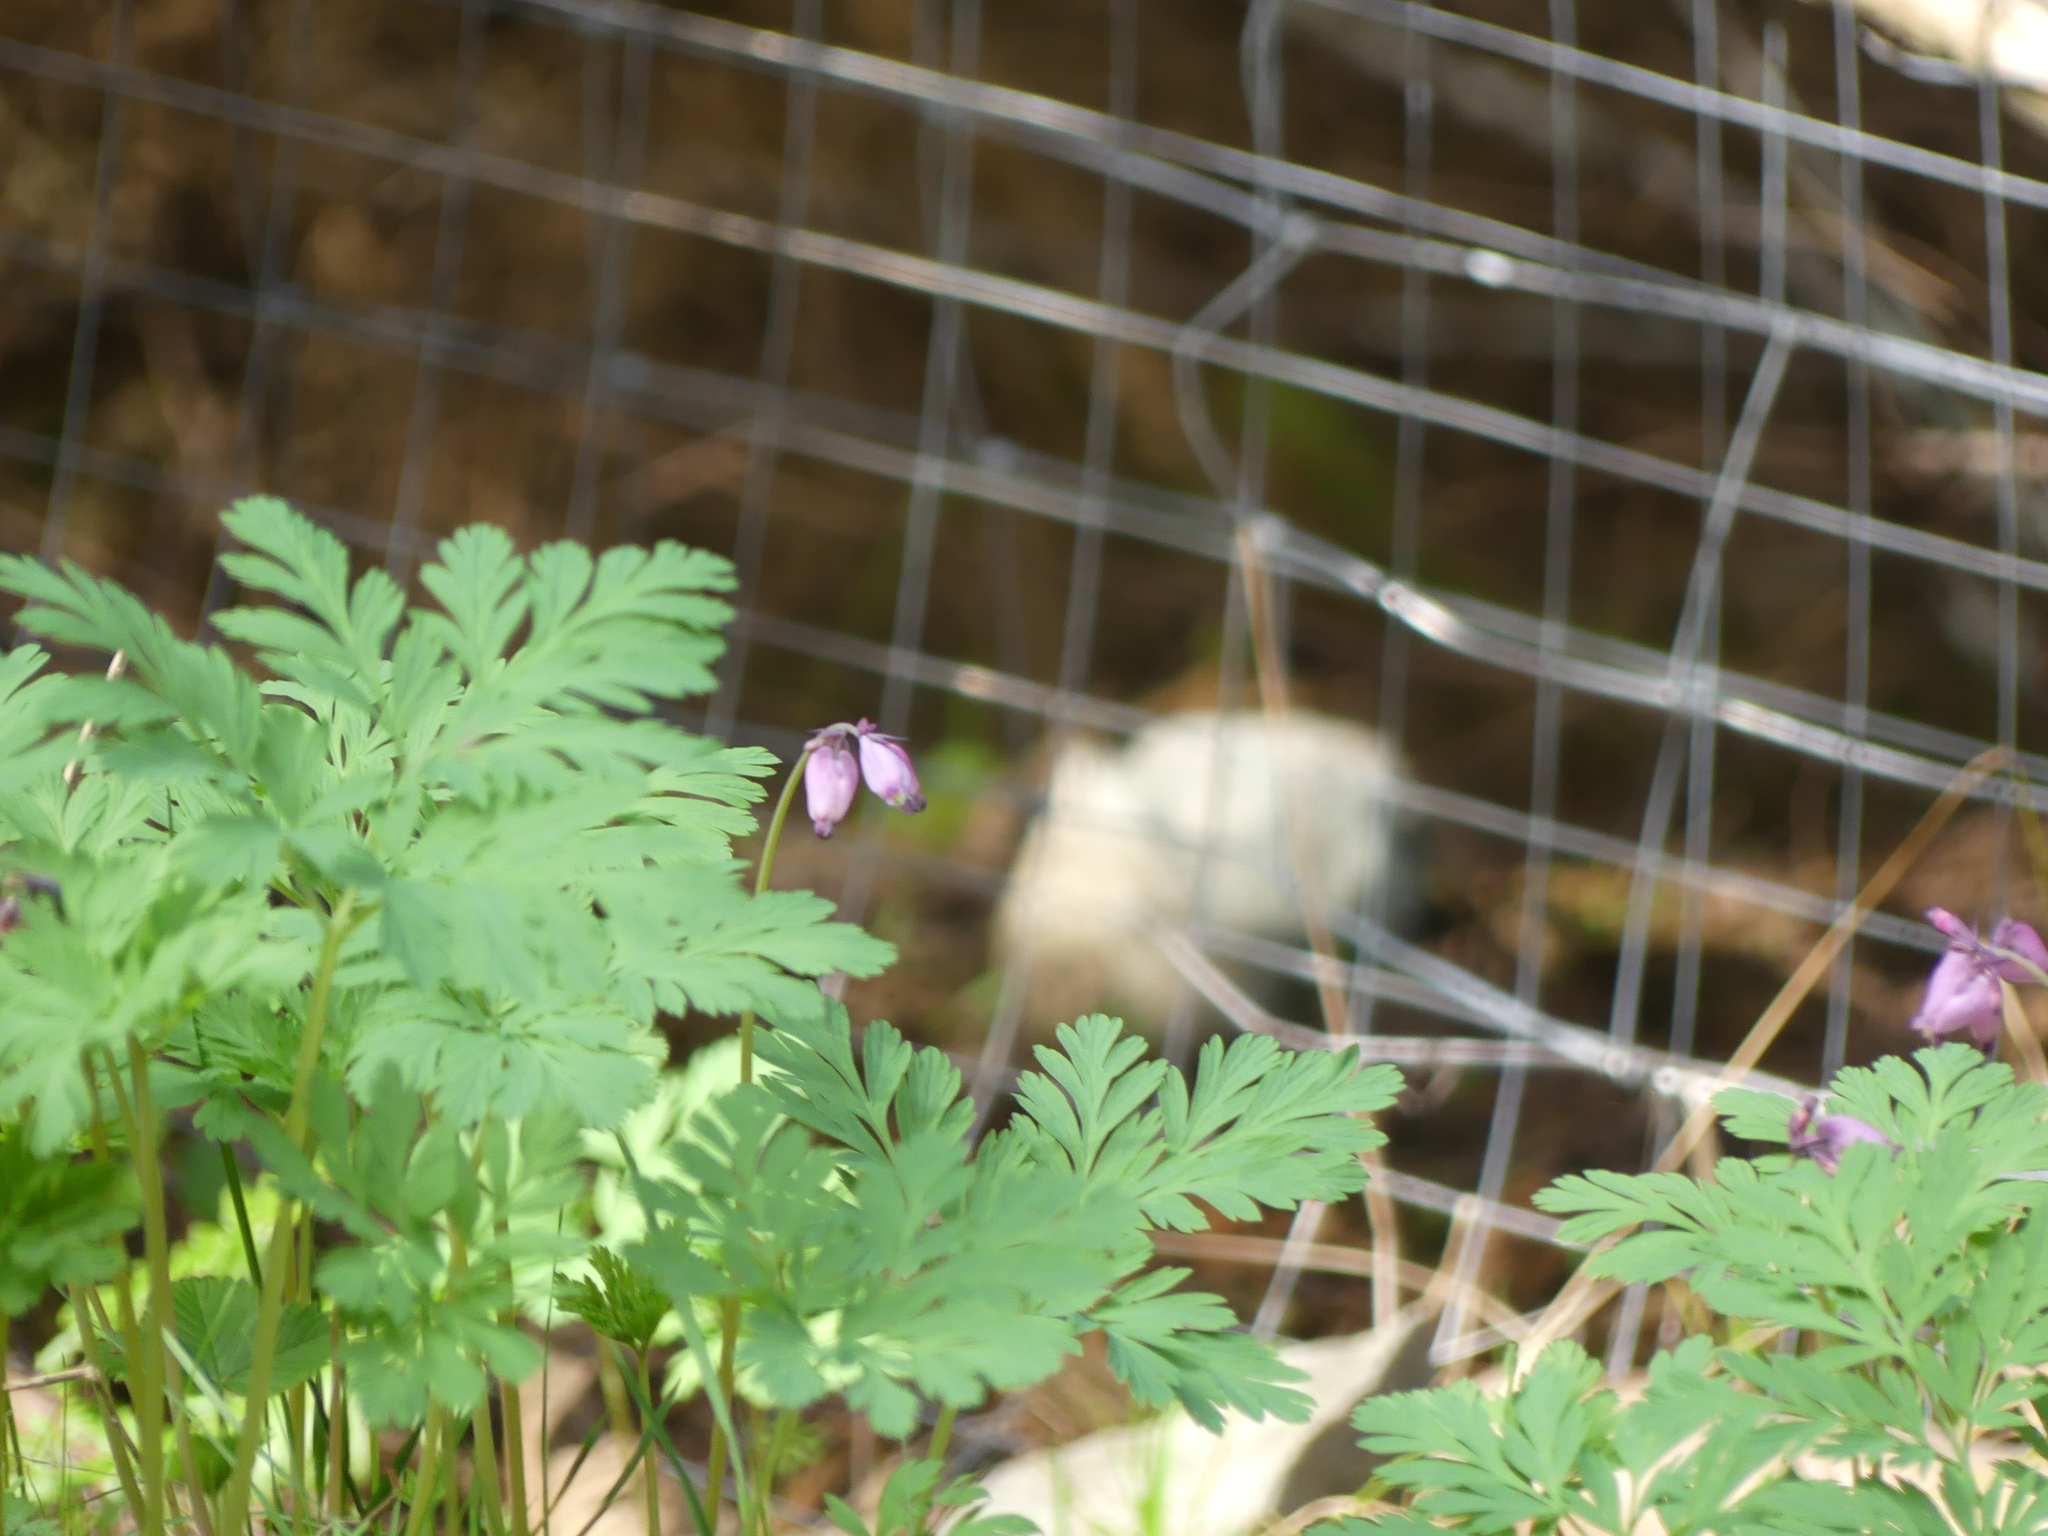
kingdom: Plantae
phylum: Tracheophyta
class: Magnoliopsida
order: Ranunculales
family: Papaveraceae
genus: Dicentra
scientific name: Dicentra formosa
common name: Bleeding-heart
